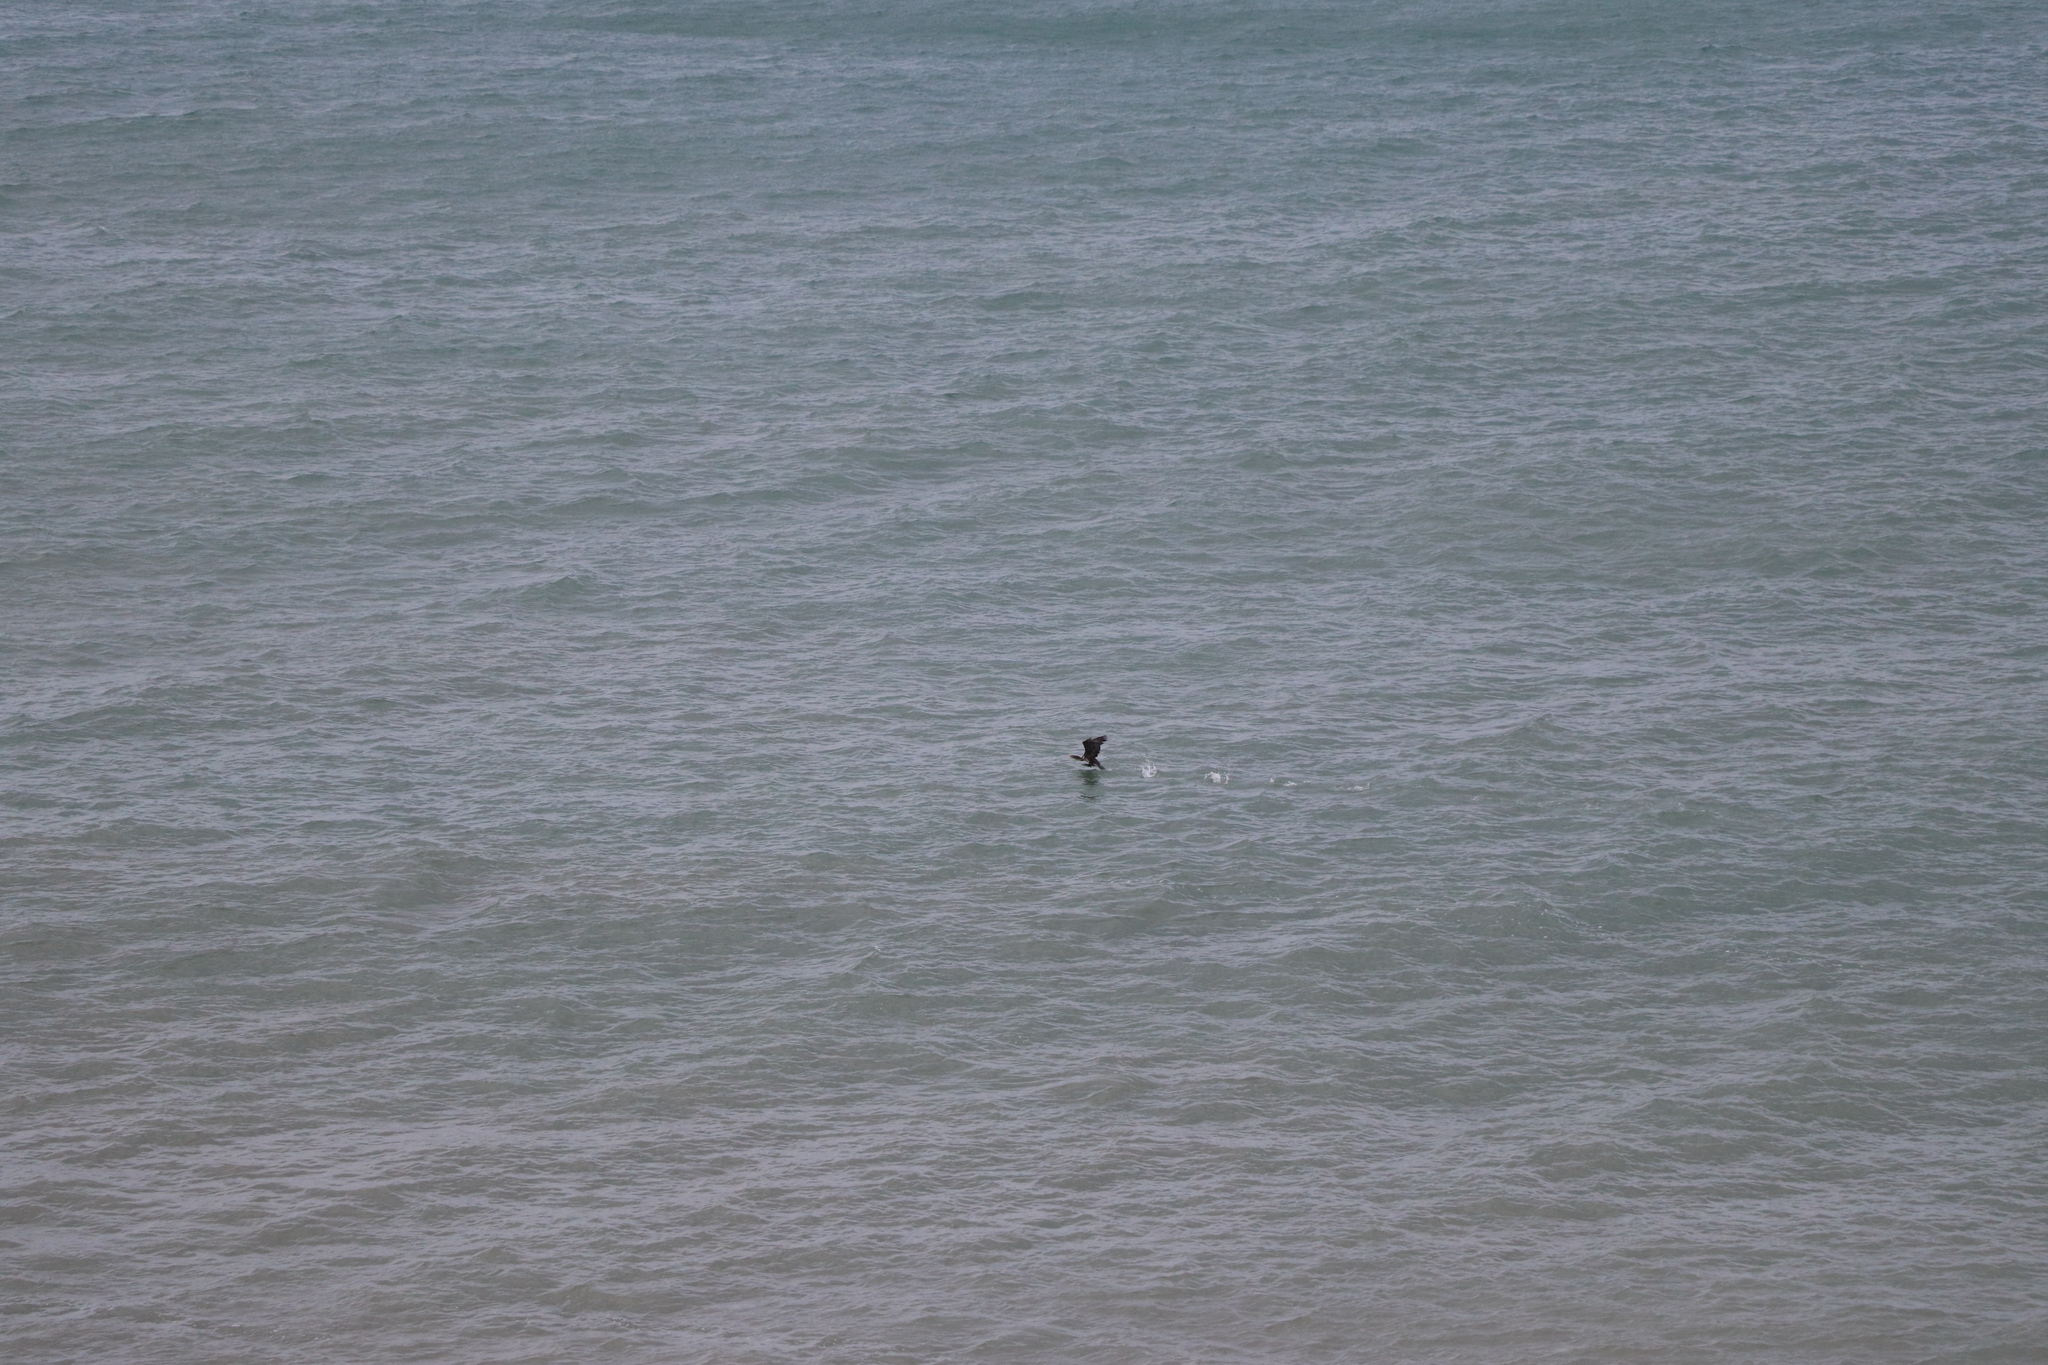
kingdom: Animalia
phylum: Chordata
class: Aves
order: Suliformes
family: Phalacrocoracidae
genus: Phalacrocorax
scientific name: Phalacrocorax carbo
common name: Great cormorant
